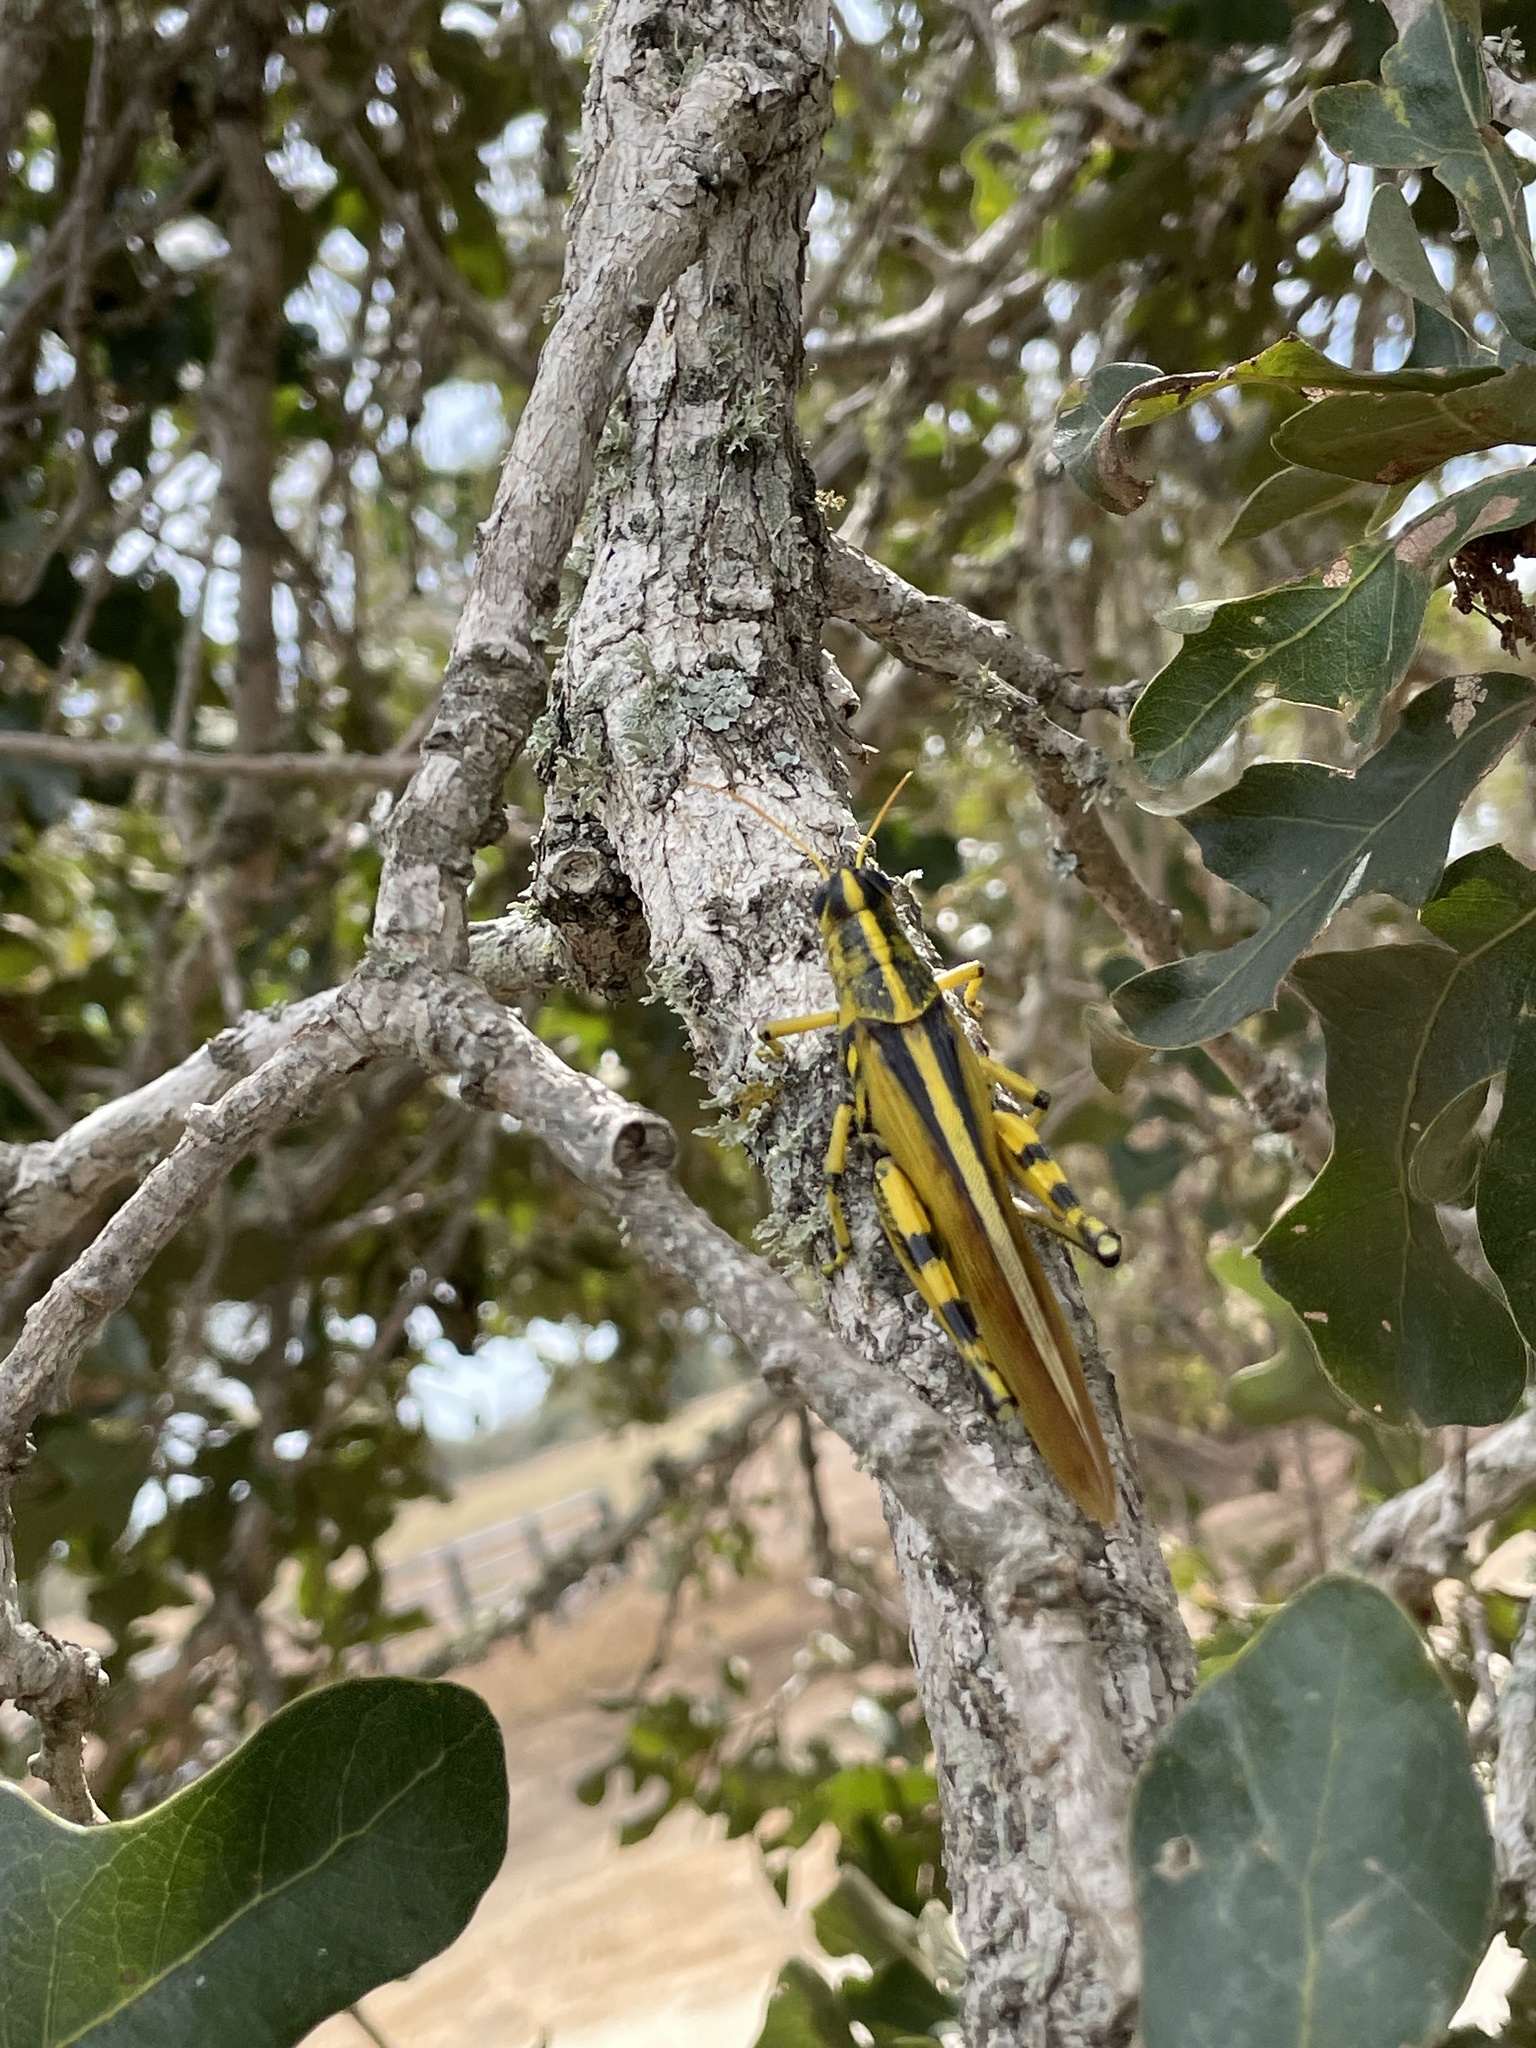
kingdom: Animalia
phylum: Arthropoda
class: Insecta
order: Orthoptera
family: Acrididae
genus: Schistocerca
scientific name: Schistocerca lineata
